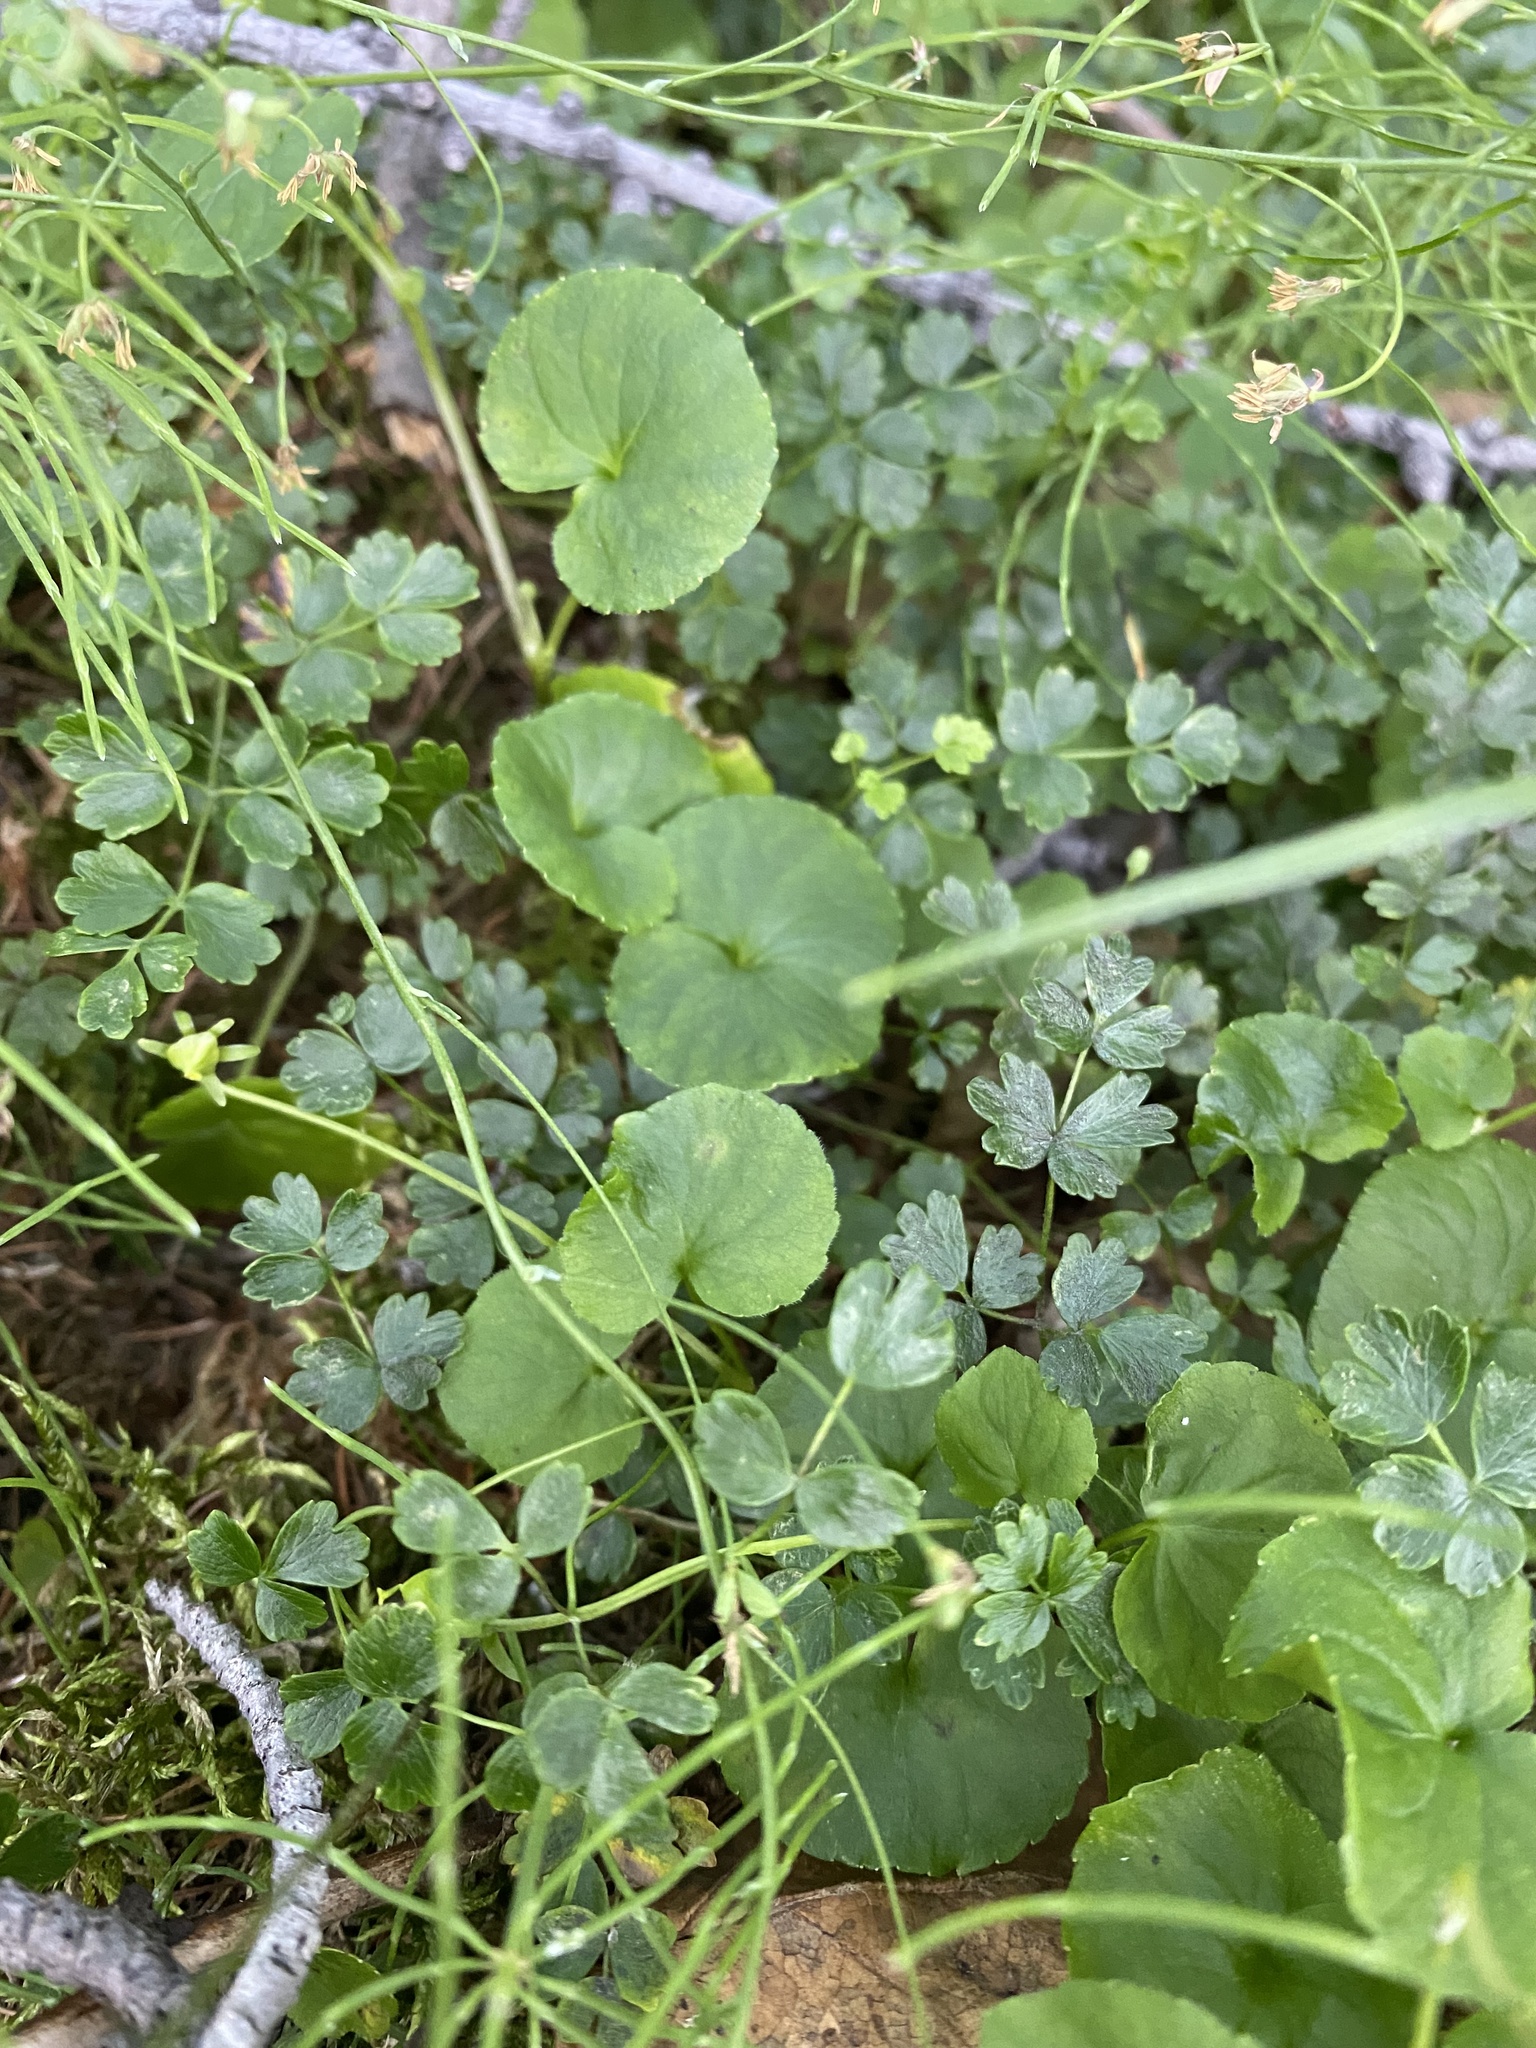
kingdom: Plantae
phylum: Tracheophyta
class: Magnoliopsida
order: Malpighiales
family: Violaceae
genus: Viola
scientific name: Viola biflora
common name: Alpine yellow violet
